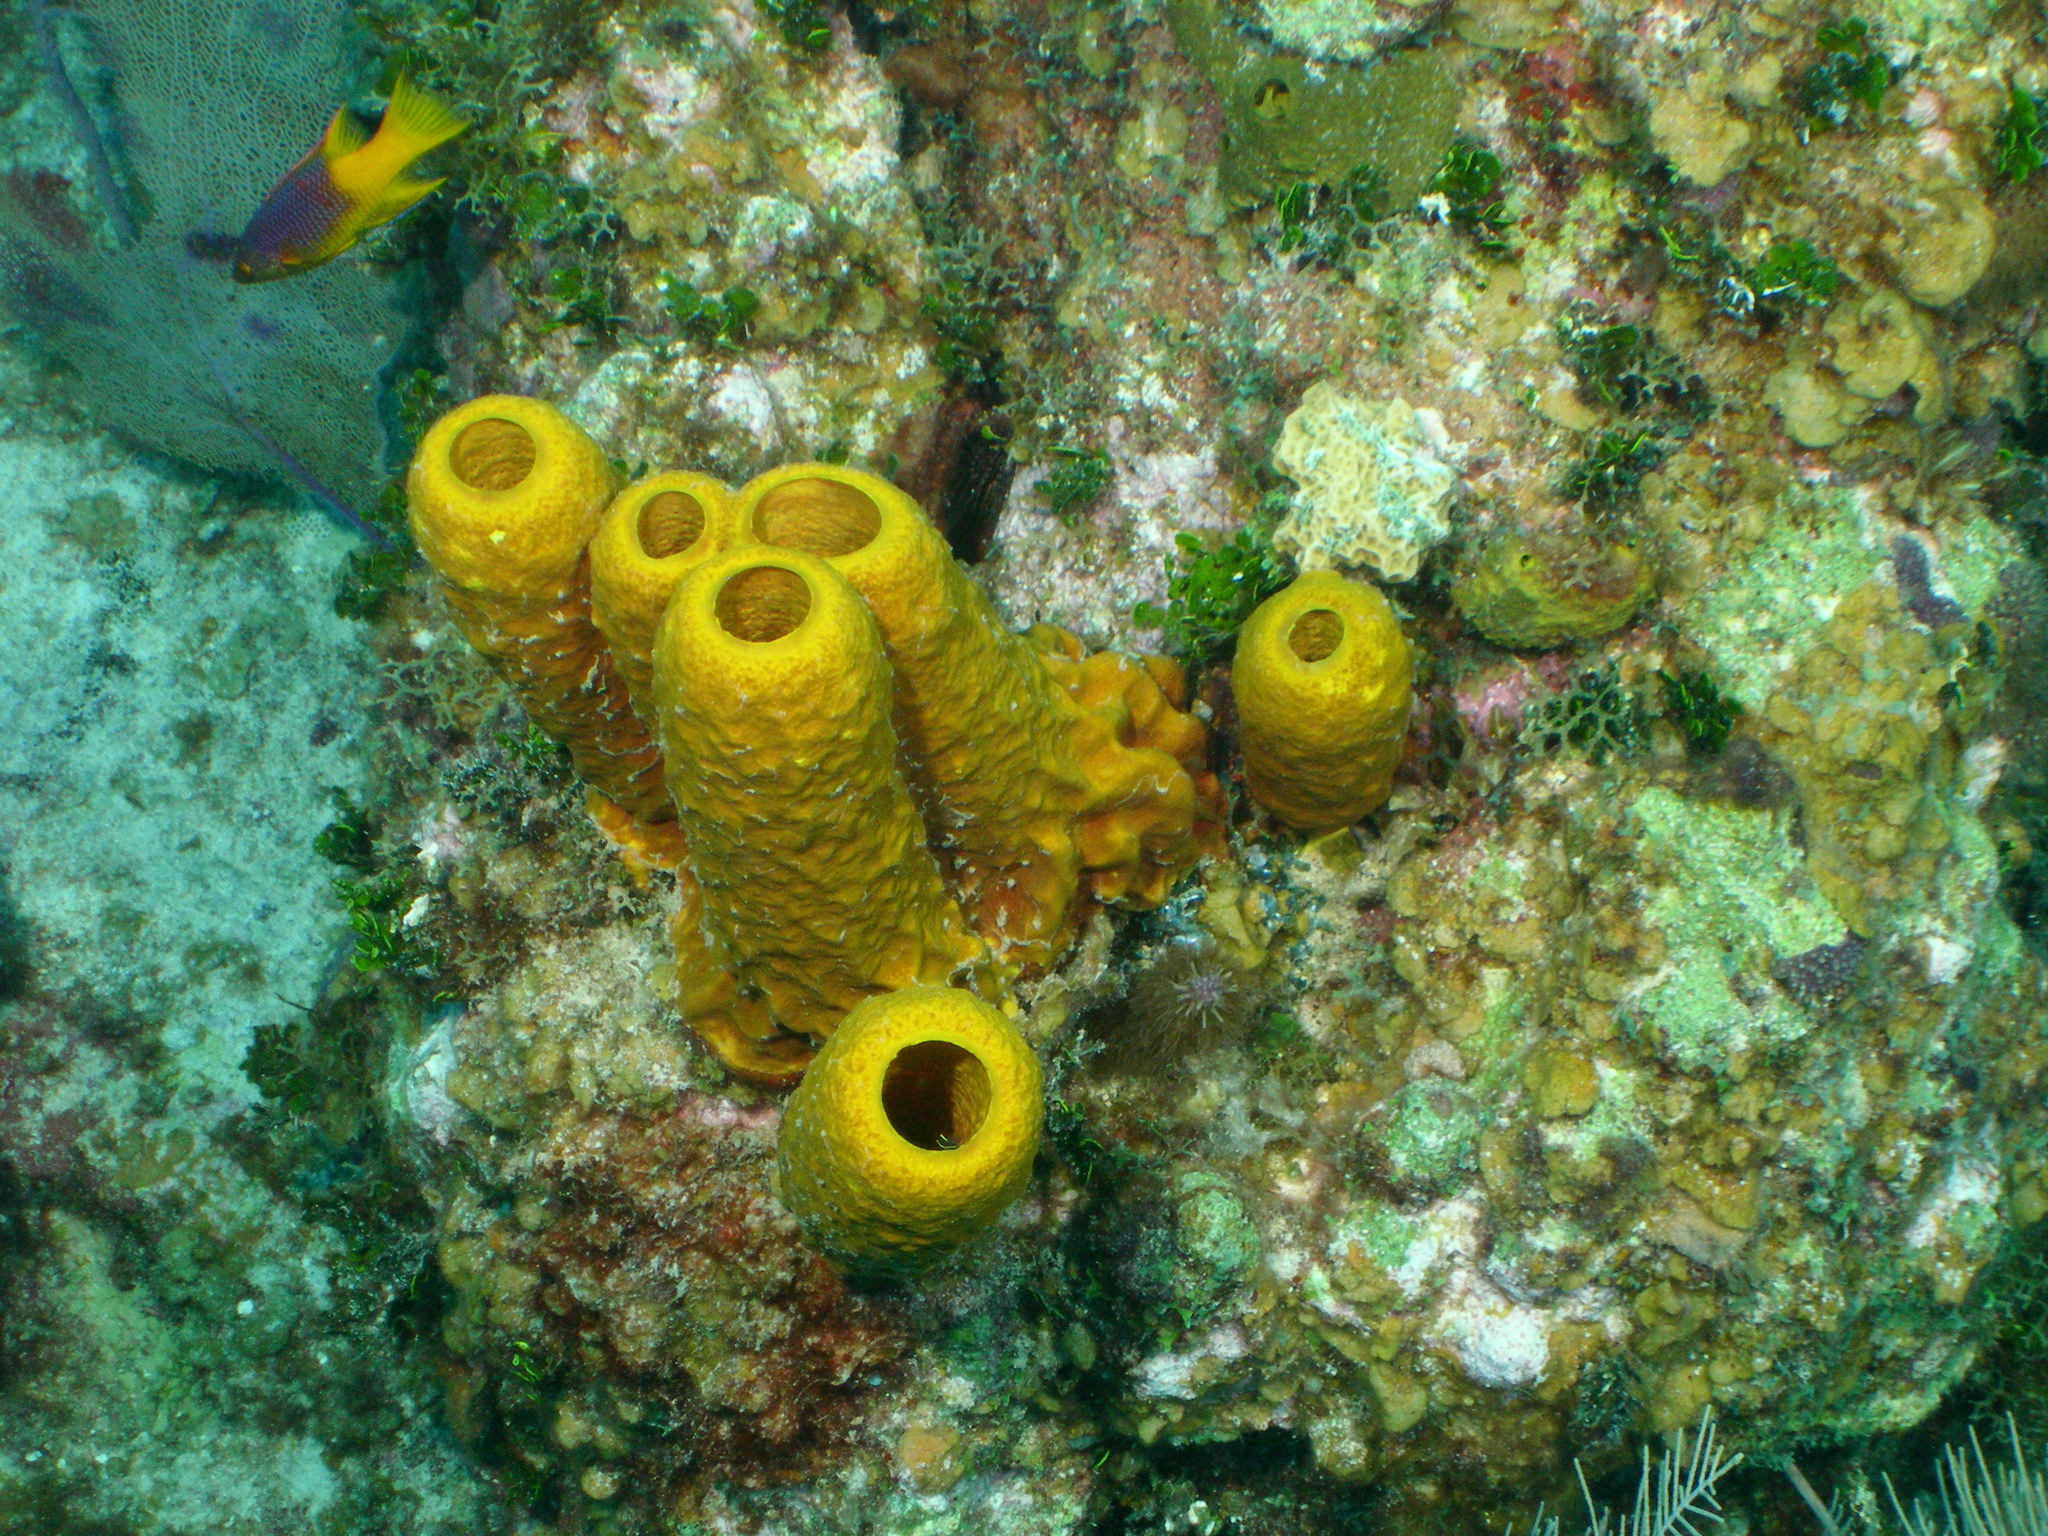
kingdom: Animalia
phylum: Porifera
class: Demospongiae
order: Verongiida
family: Aplysinidae
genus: Aplysina
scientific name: Aplysina fistularis
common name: Candle sponge
